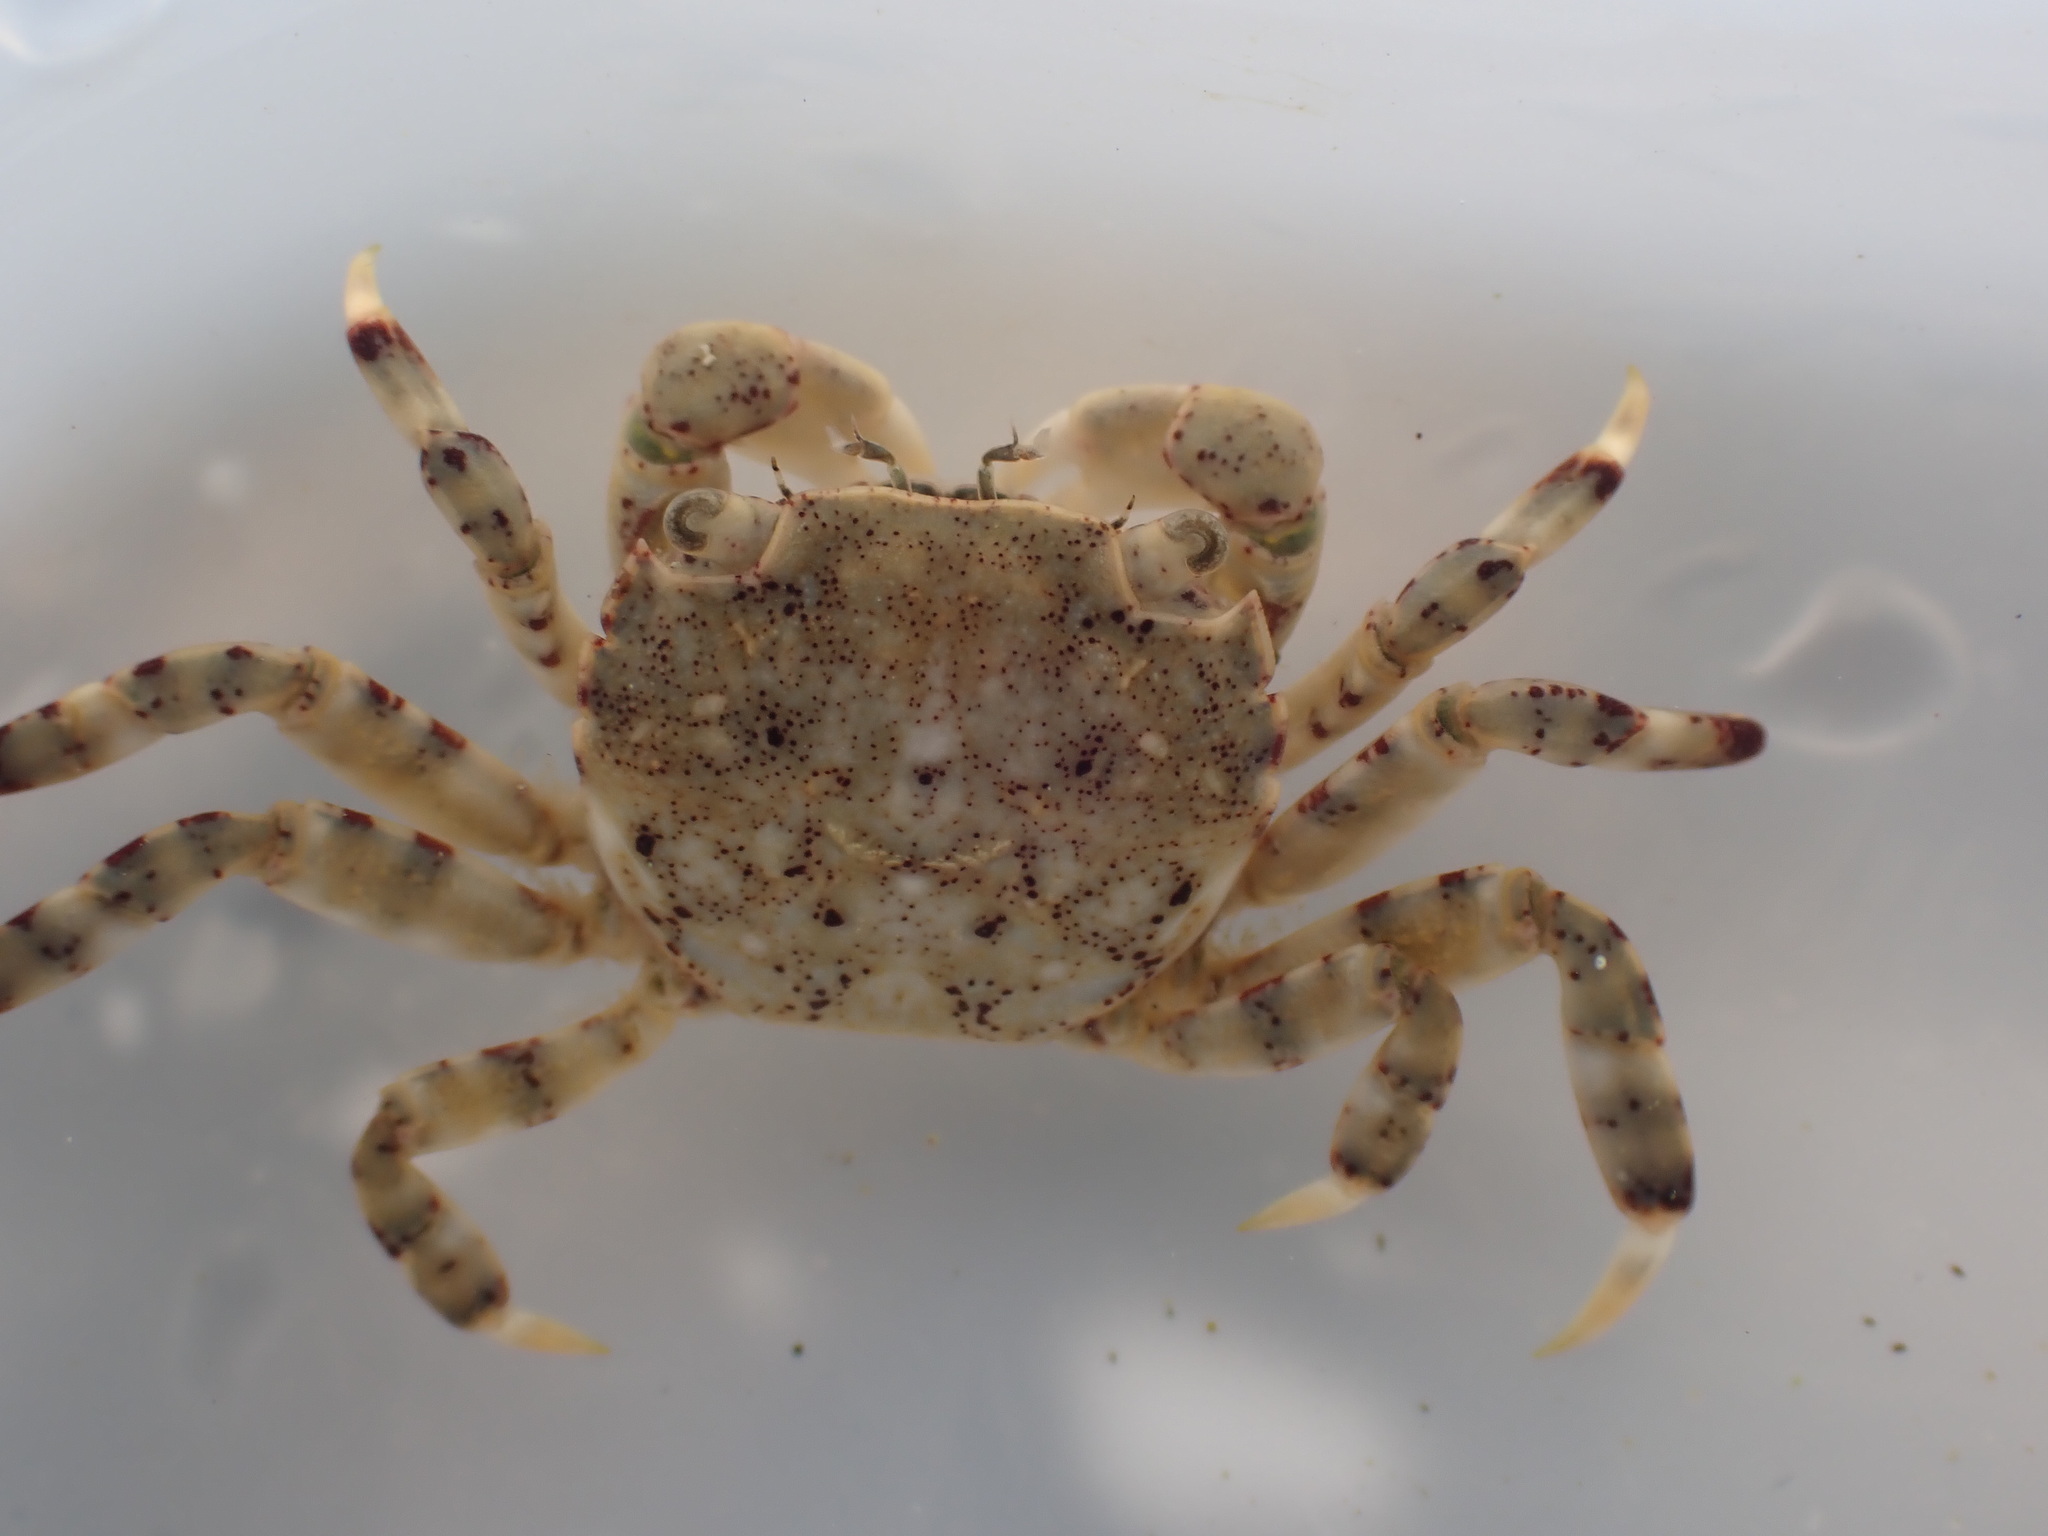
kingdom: Animalia
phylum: Arthropoda
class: Malacostraca
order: Decapoda
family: Varunidae
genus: Hemigrapsus
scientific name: Hemigrapsus sexdentatus
